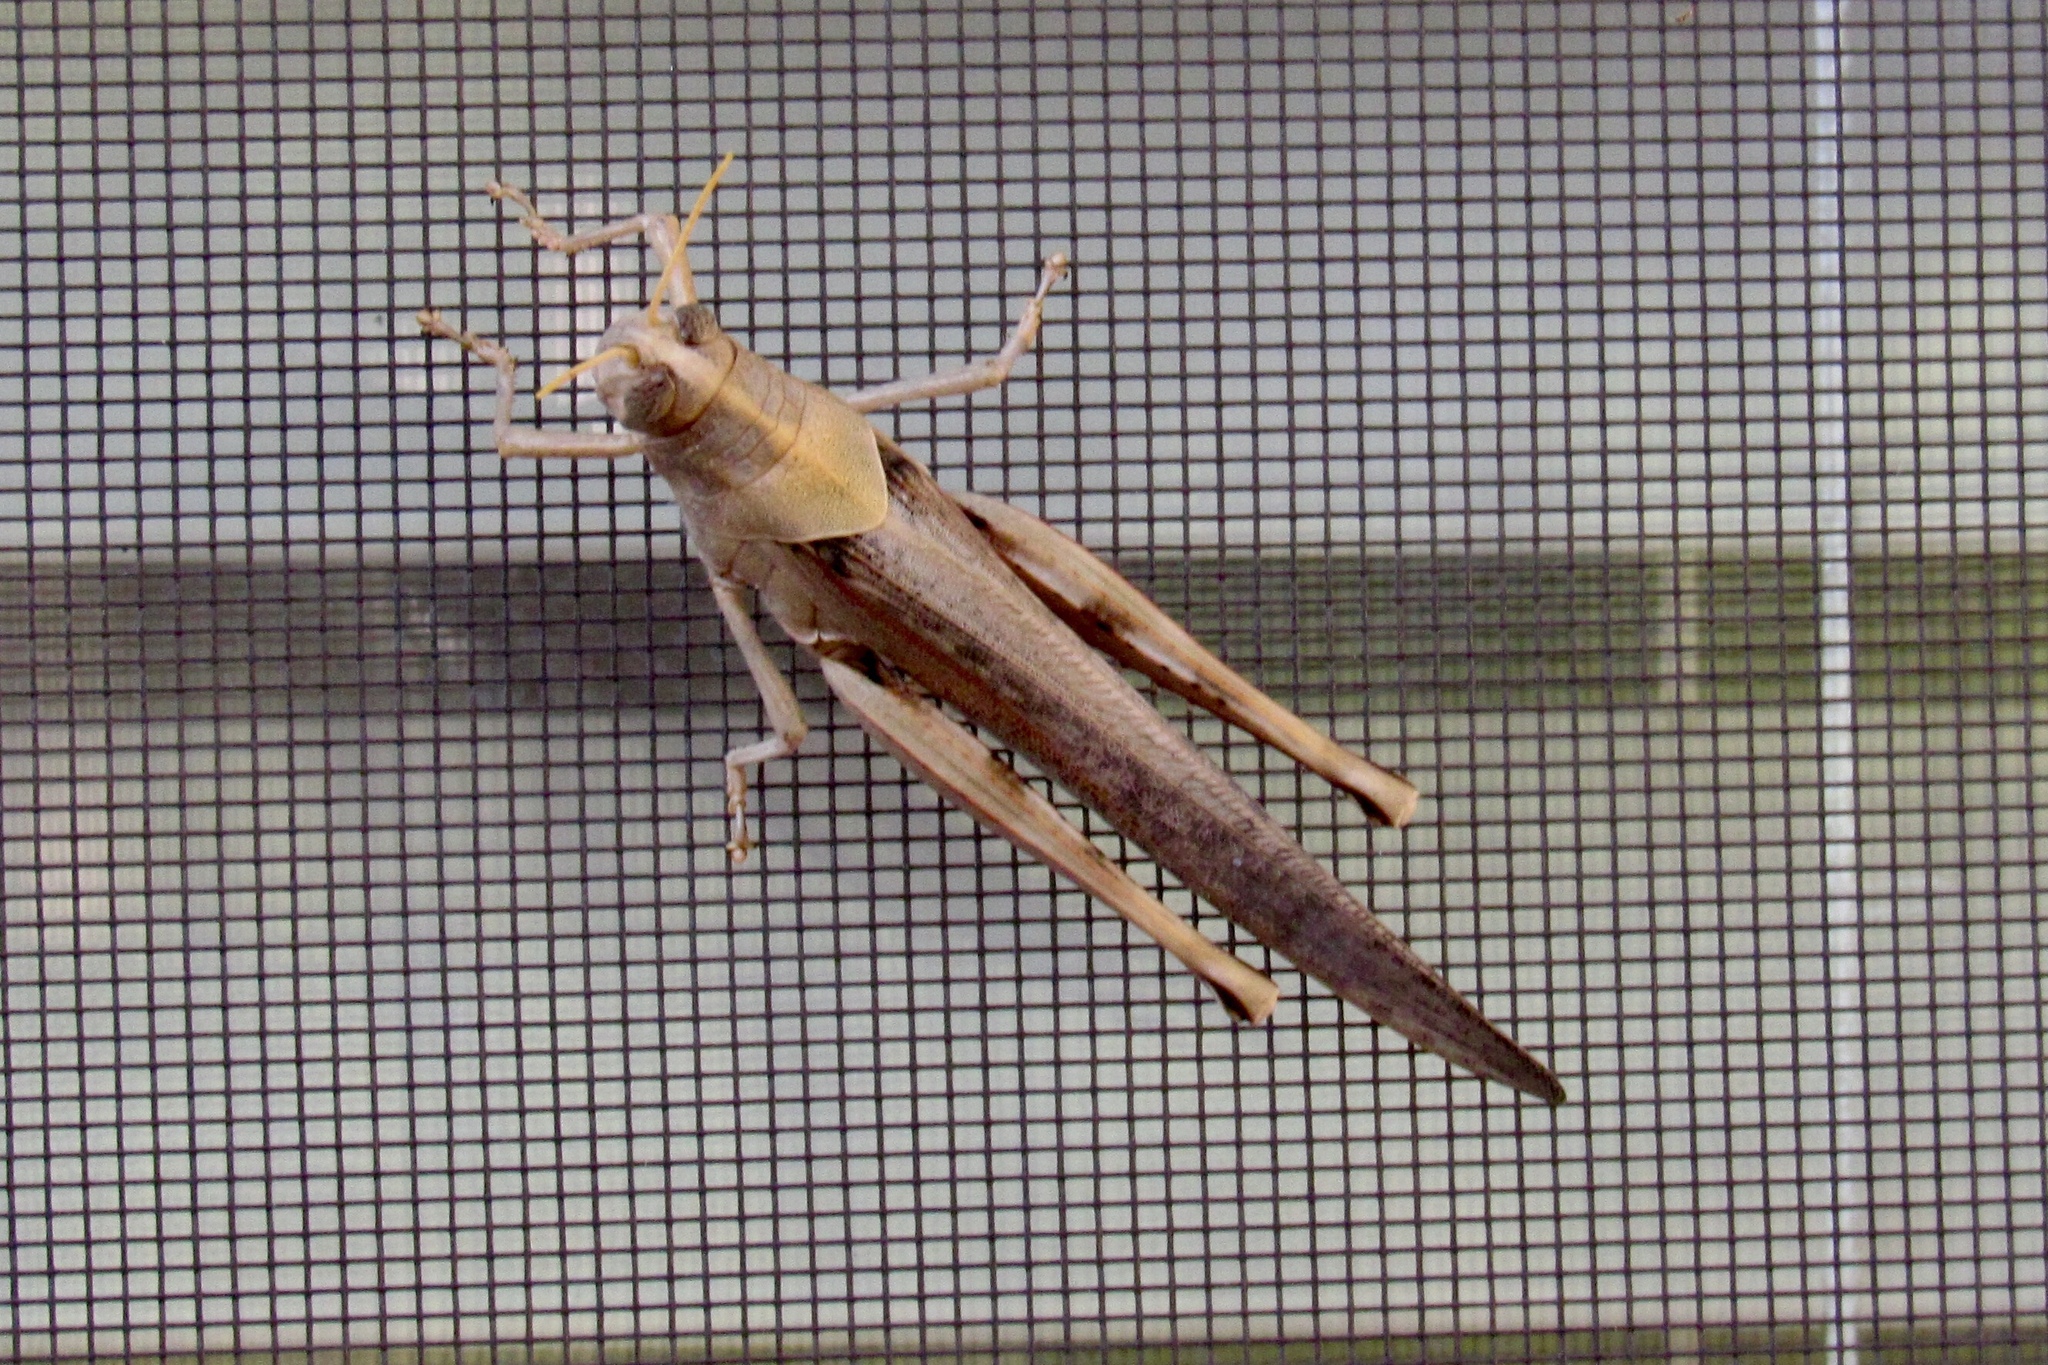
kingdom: Animalia
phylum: Arthropoda
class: Insecta
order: Orthoptera
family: Acrididae
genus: Schistocerca
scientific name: Schistocerca nitens
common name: Vagrant grasshopper
